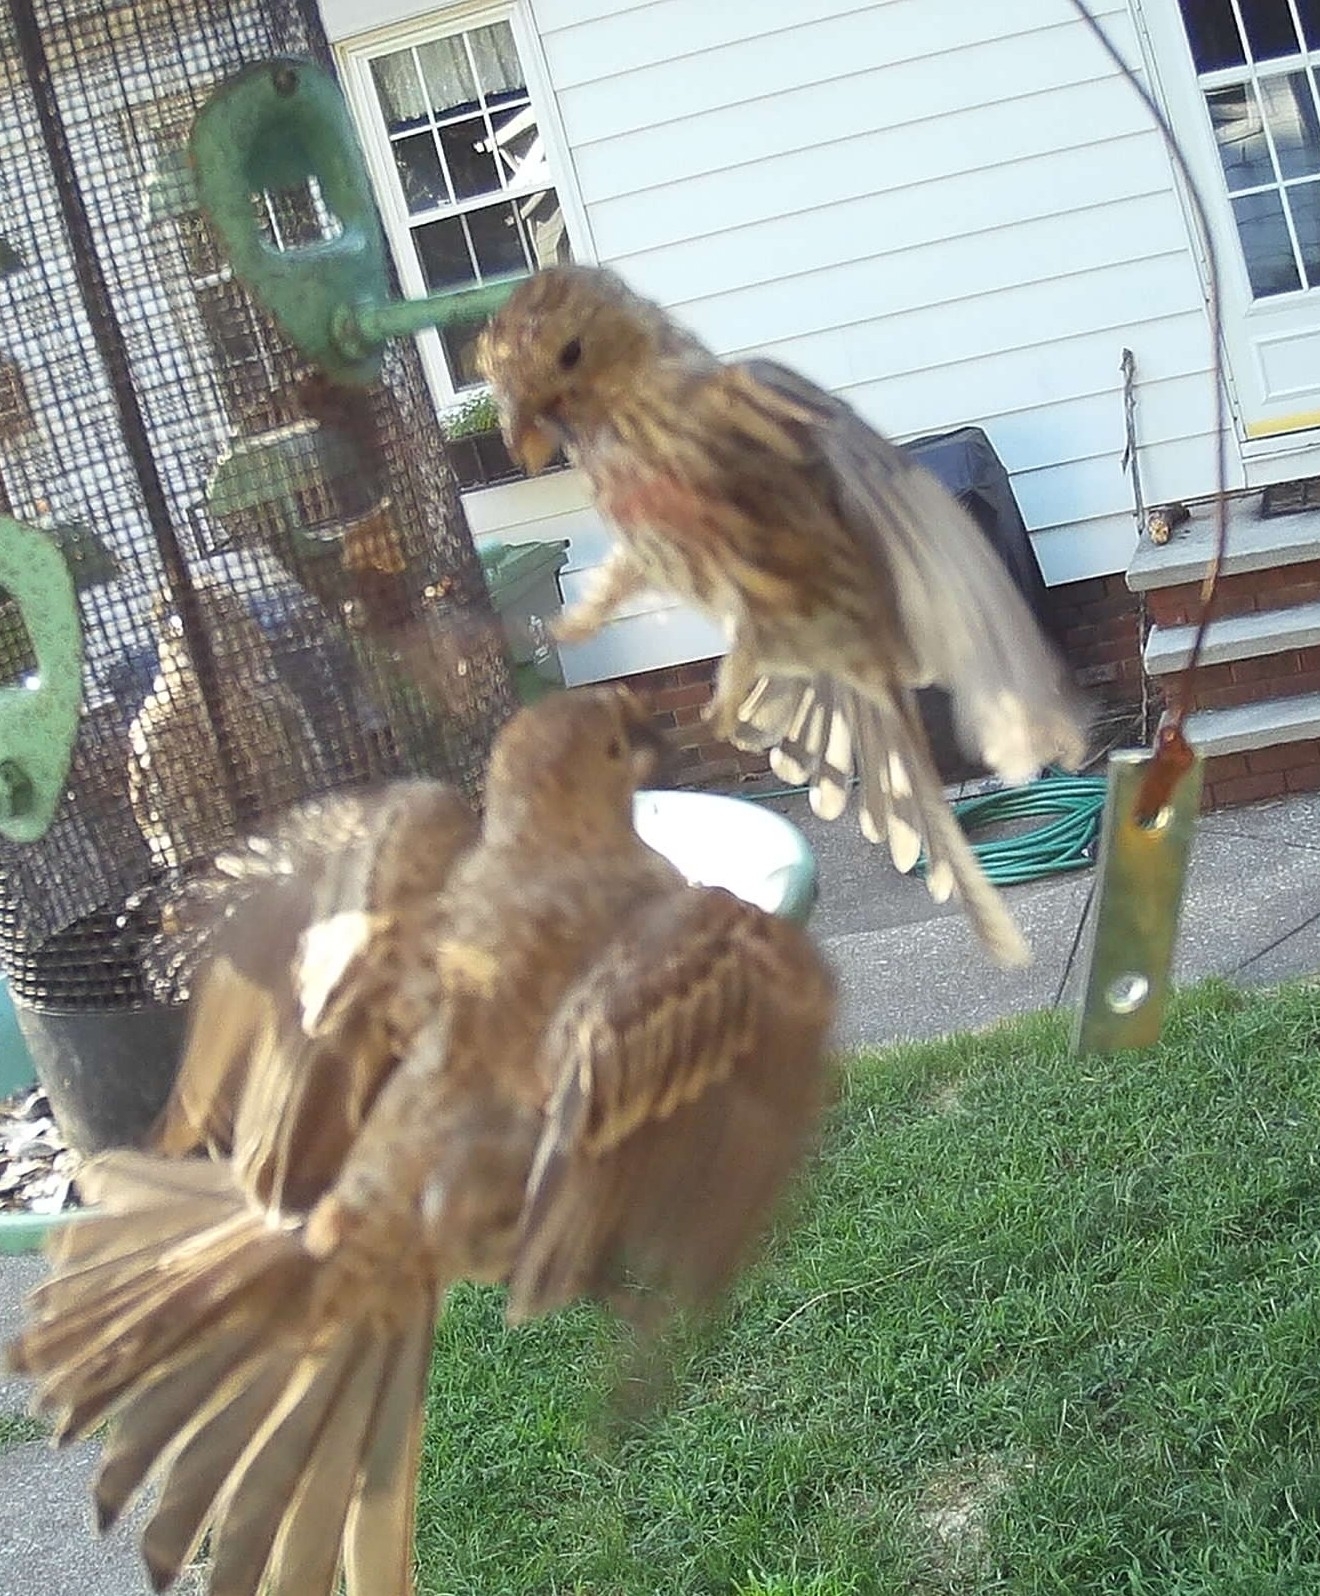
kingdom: Animalia
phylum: Chordata
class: Aves
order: Passeriformes
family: Fringillidae
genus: Haemorhous
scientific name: Haemorhous mexicanus
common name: House finch
